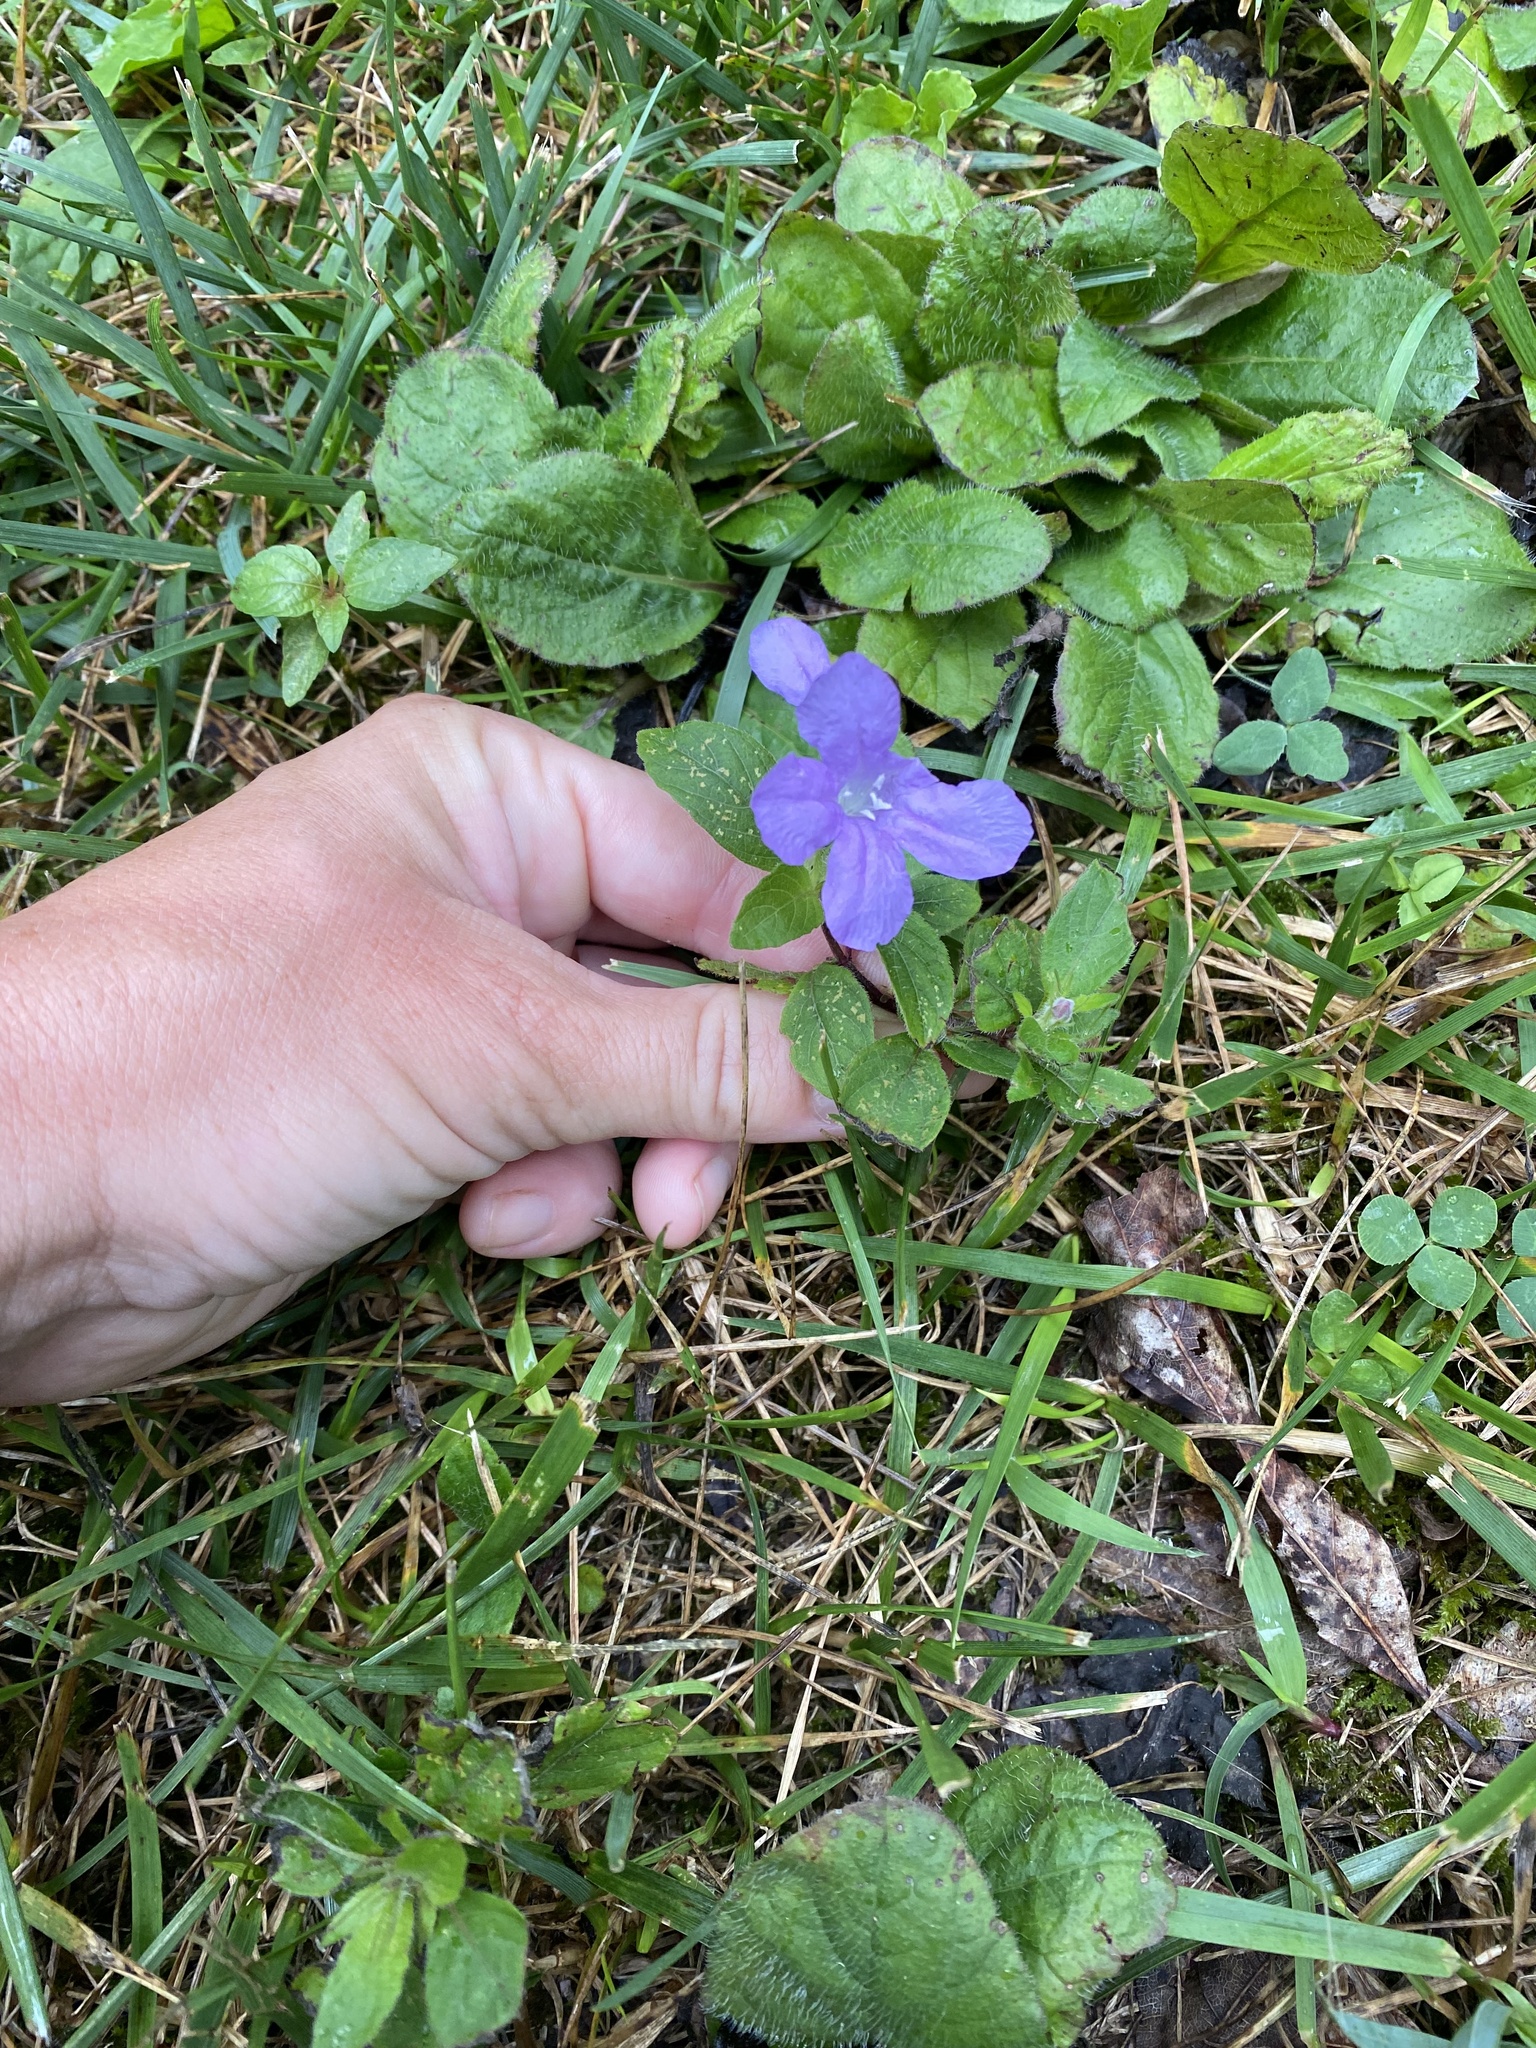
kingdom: Plantae
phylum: Tracheophyta
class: Magnoliopsida
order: Lamiales
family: Acanthaceae
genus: Ruellia
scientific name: Ruellia caroliniensis
